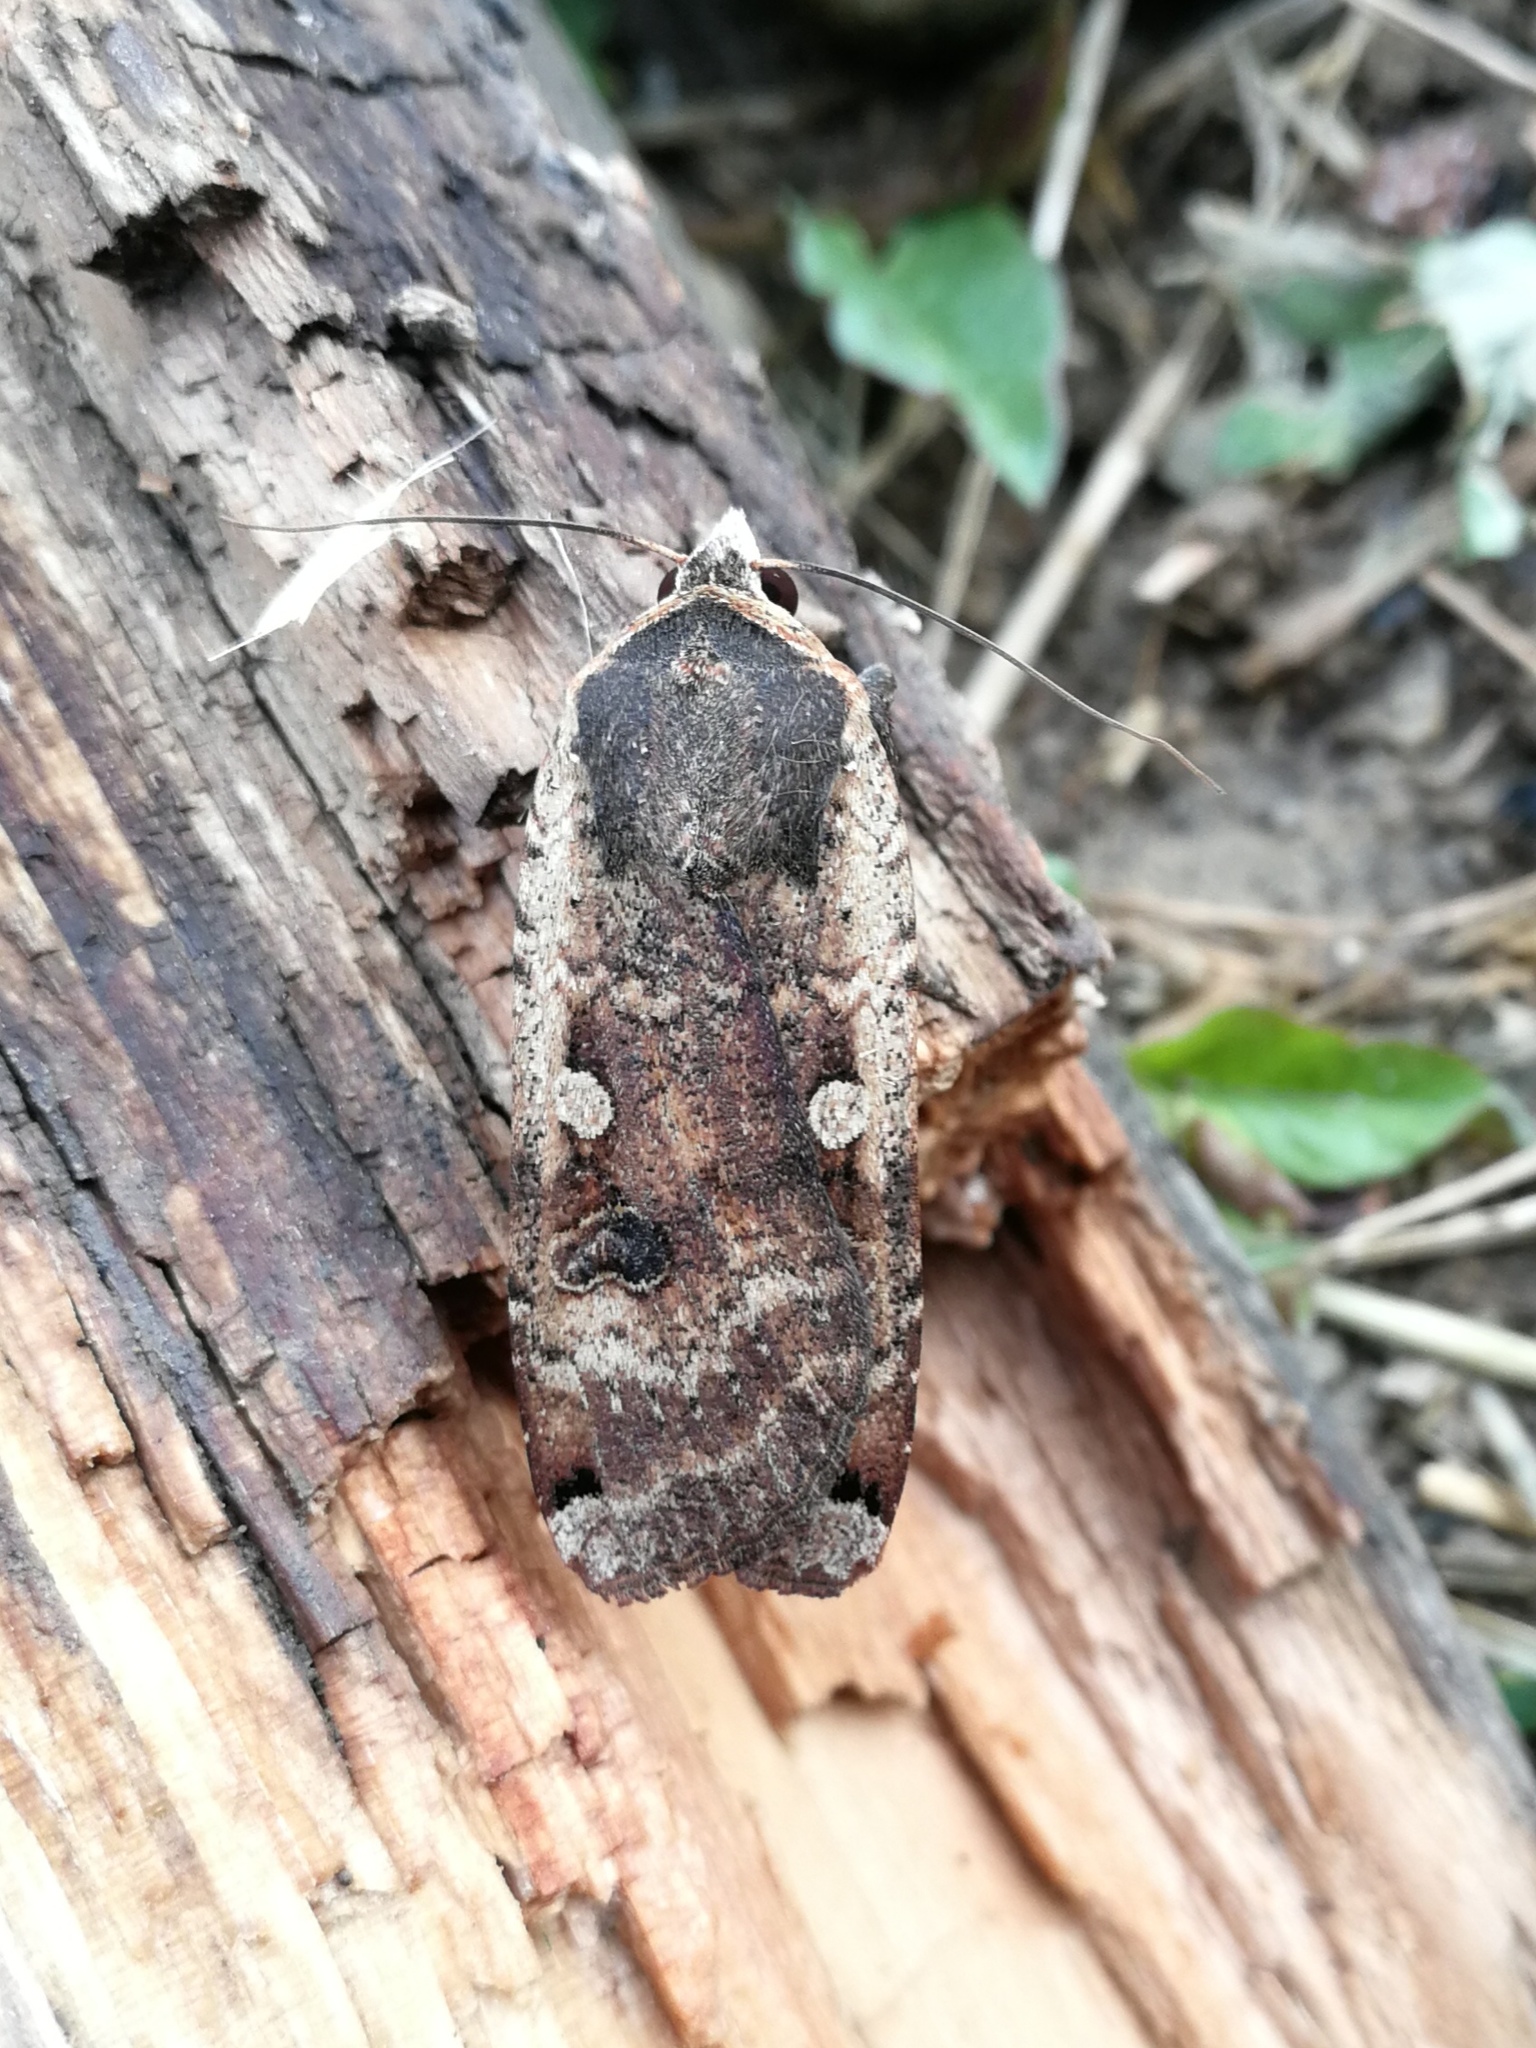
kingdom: Animalia
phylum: Arthropoda
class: Insecta
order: Lepidoptera
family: Noctuidae
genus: Noctua
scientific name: Noctua pronuba
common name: Large yellow underwing
